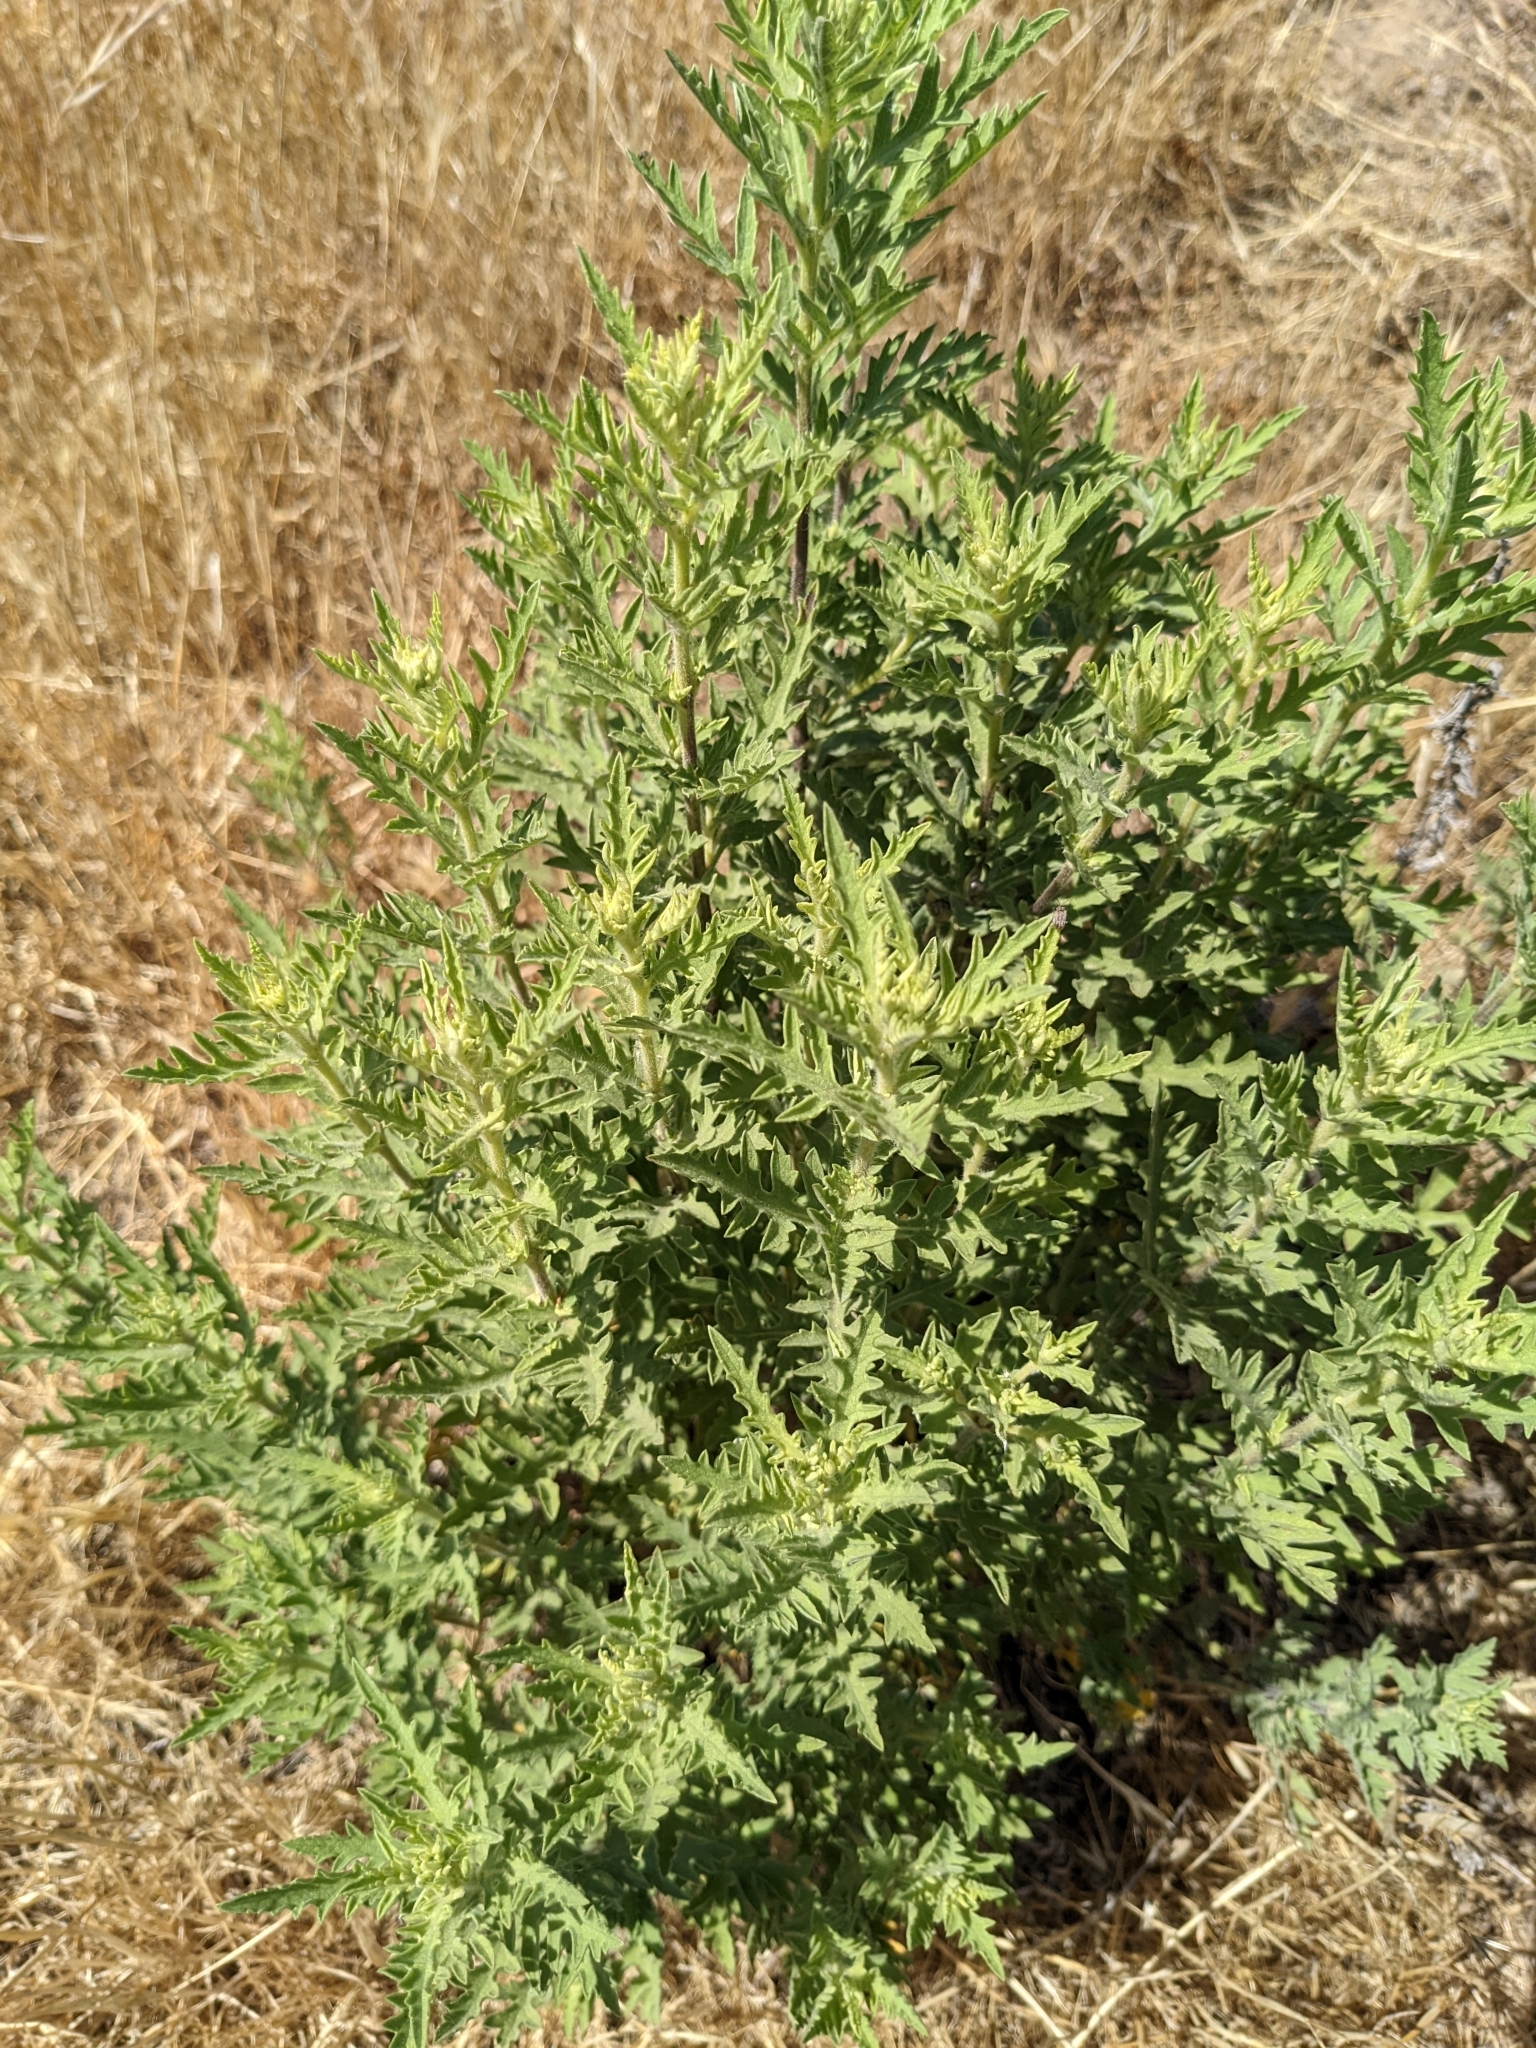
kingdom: Plantae
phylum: Tracheophyta
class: Magnoliopsida
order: Asterales
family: Asteraceae
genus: Ambrosia
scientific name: Ambrosia psilostachya
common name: Perennial ragweed
